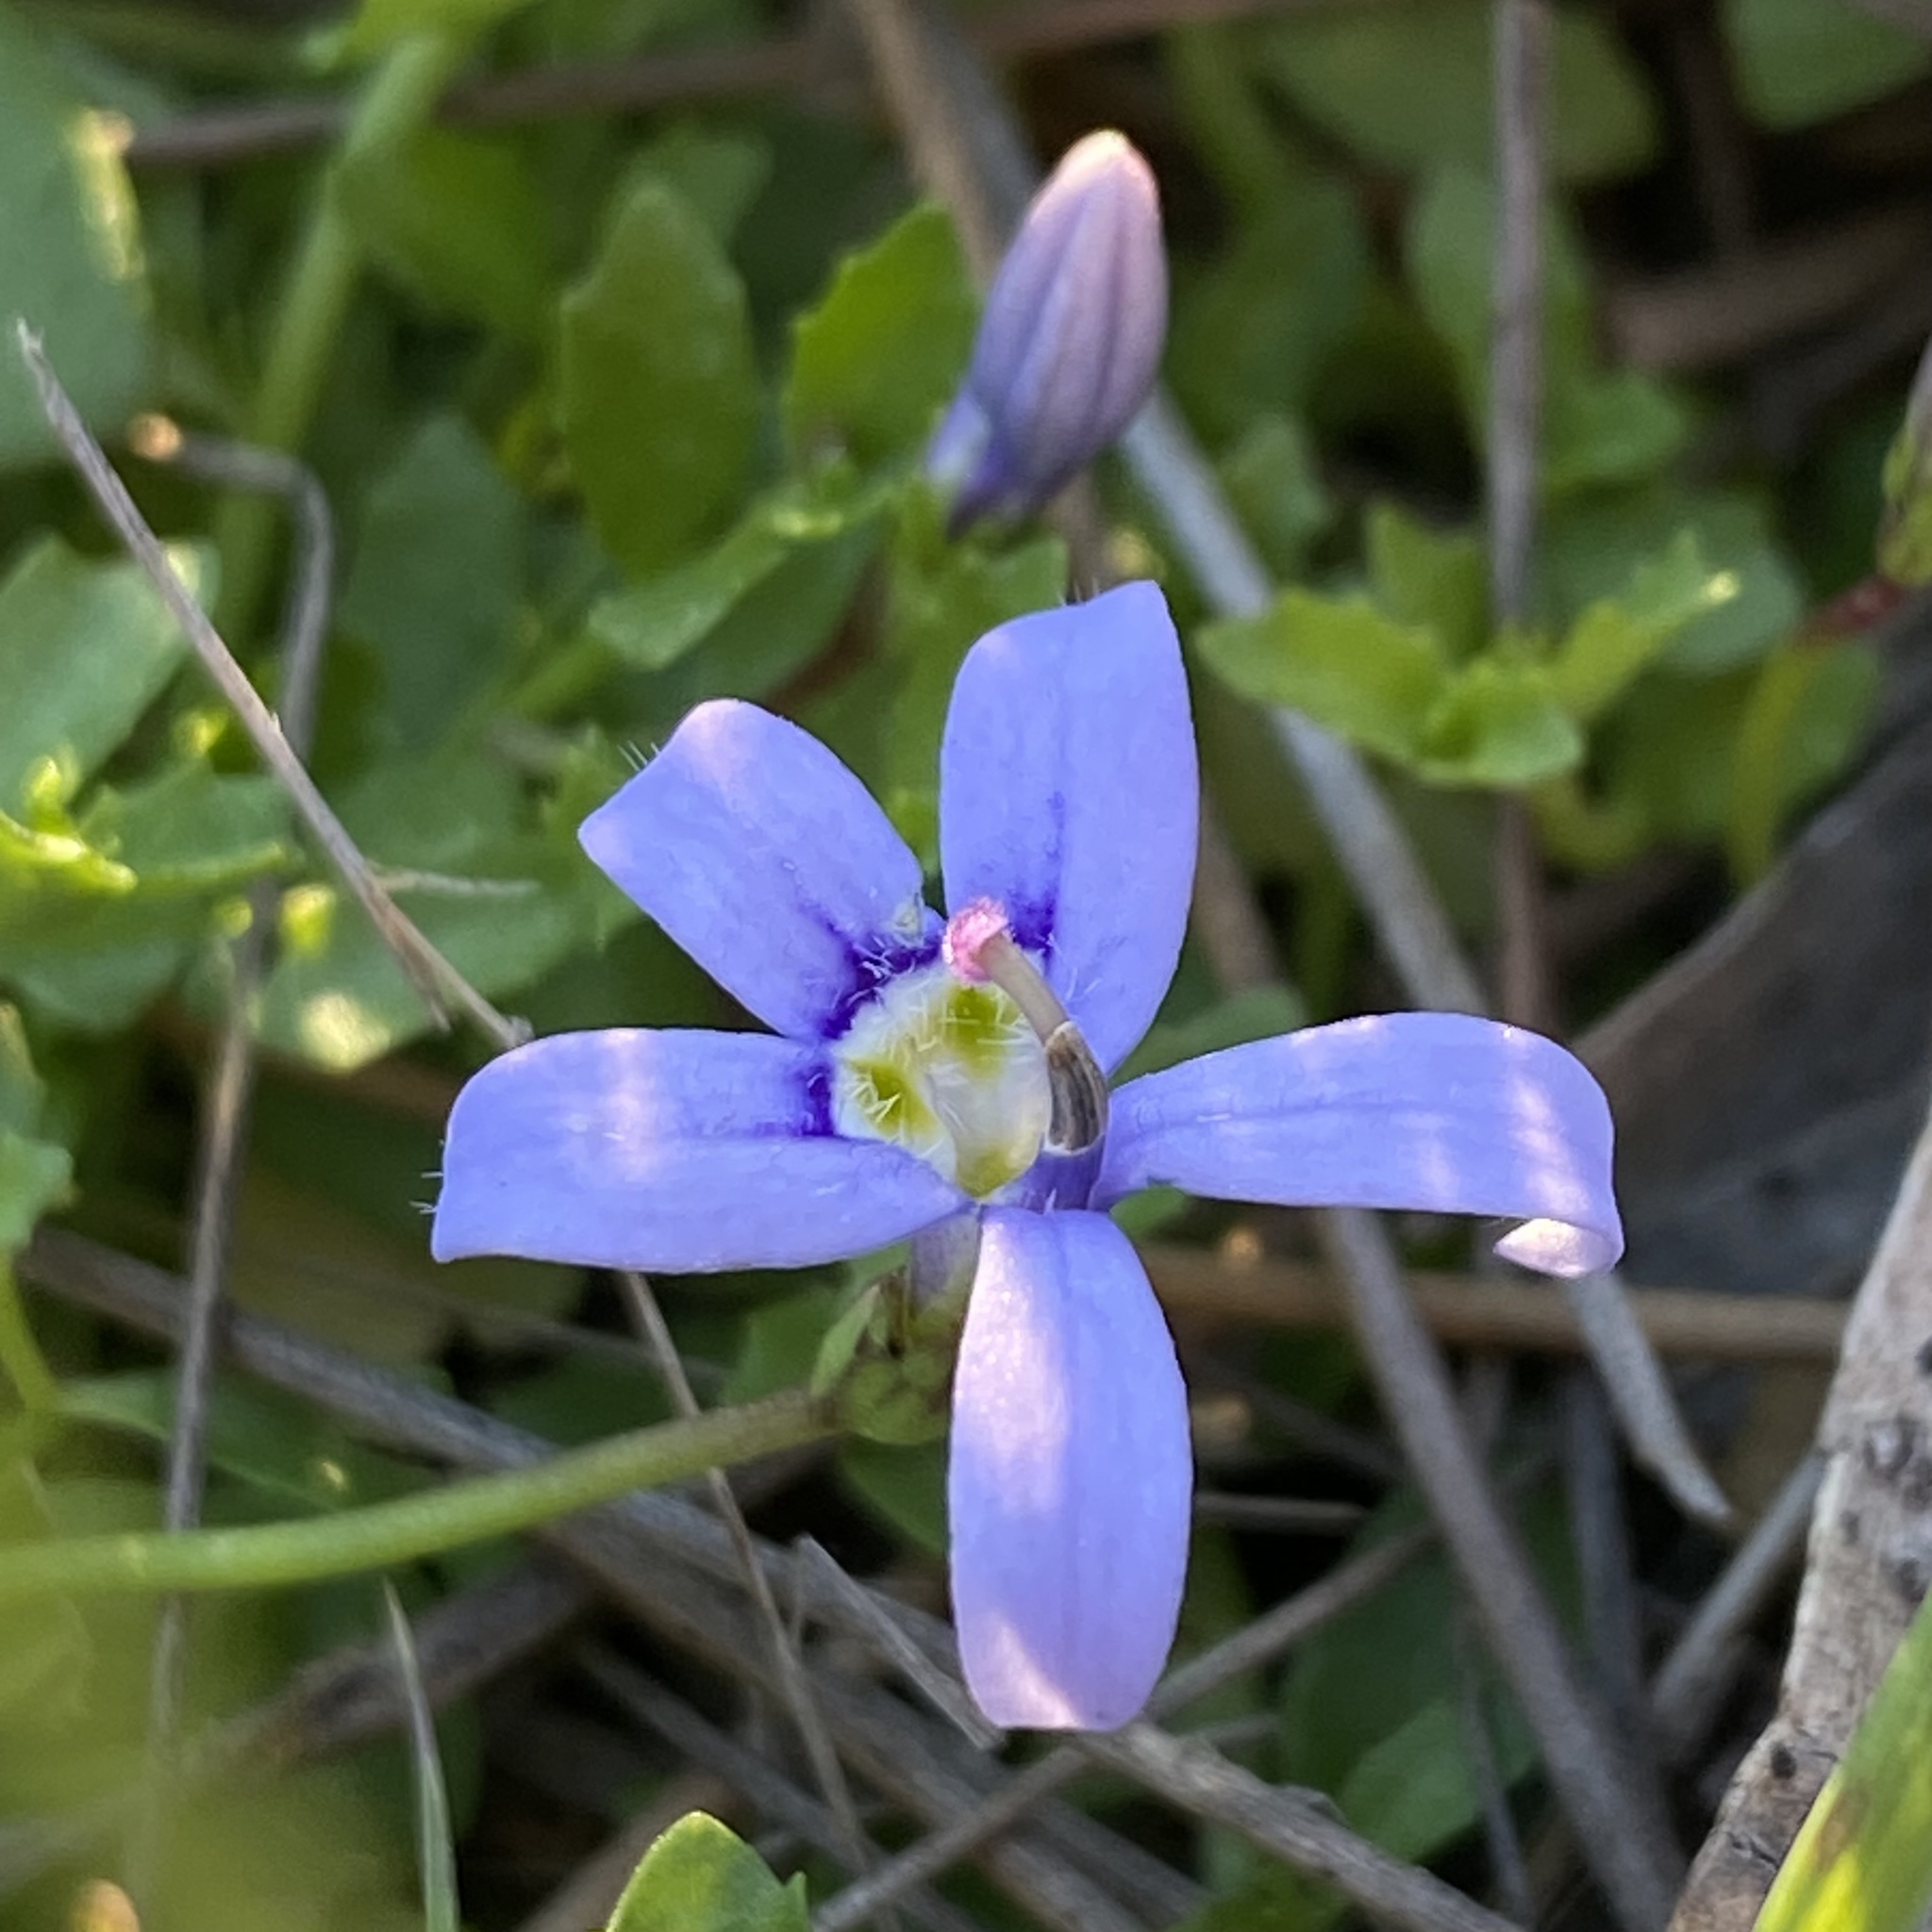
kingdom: Plantae
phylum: Tracheophyta
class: Magnoliopsida
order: Asterales
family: Campanulaceae
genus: Isotoma
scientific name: Isotoma fluviatilis
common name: Isotoma
